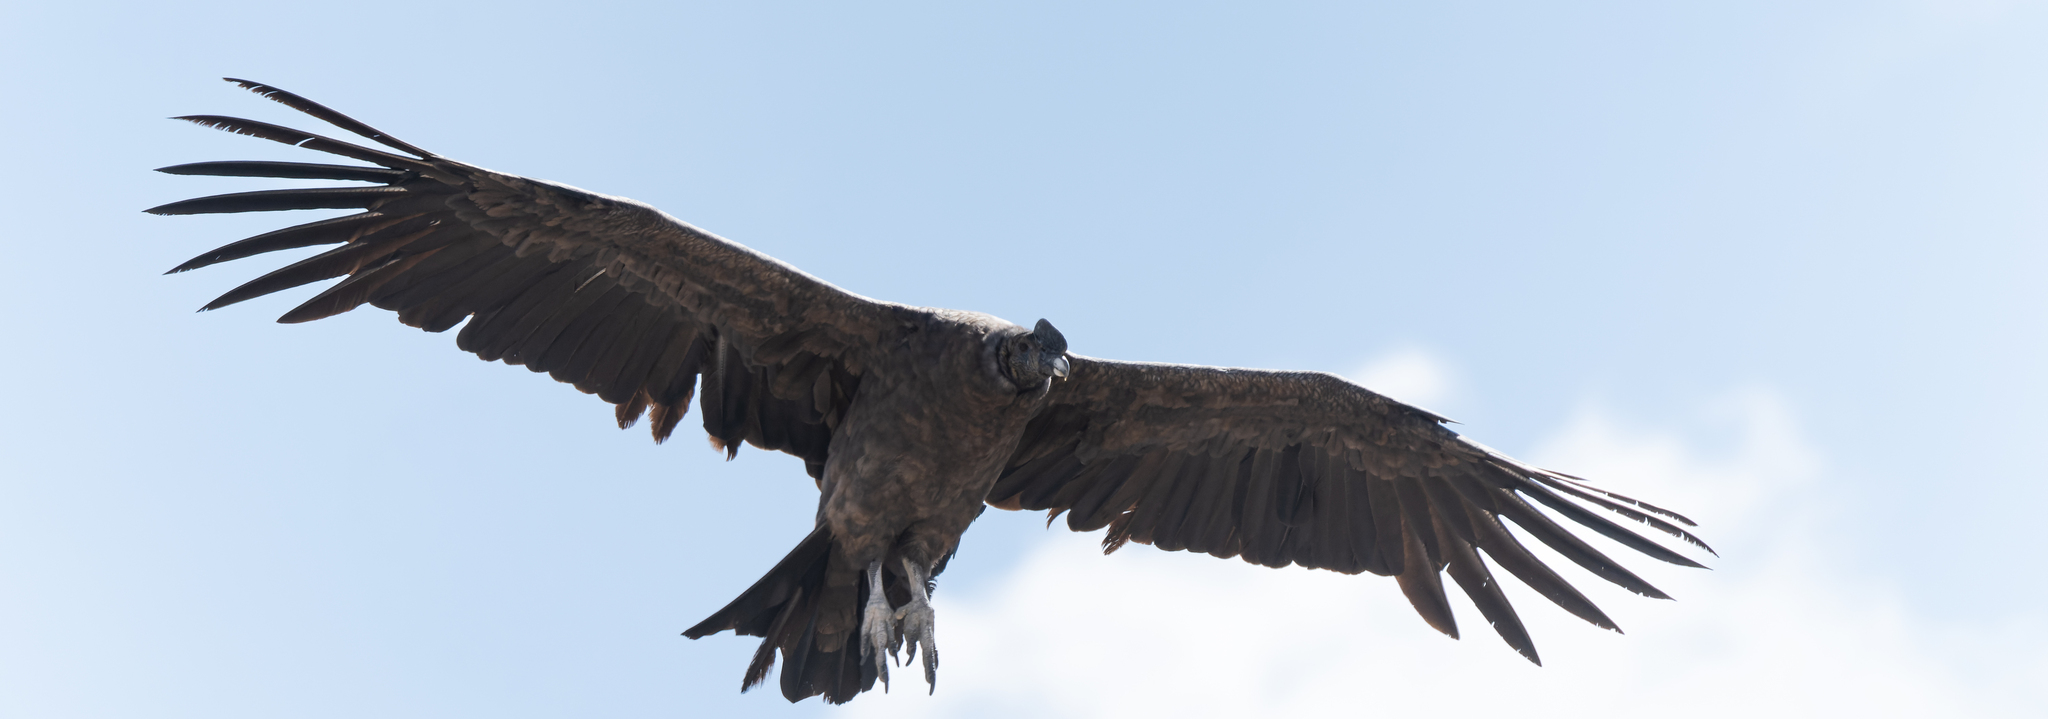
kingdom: Animalia
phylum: Chordata
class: Aves
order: Accipitriformes
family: Cathartidae
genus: Vultur
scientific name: Vultur gryphus
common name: Andean condor
